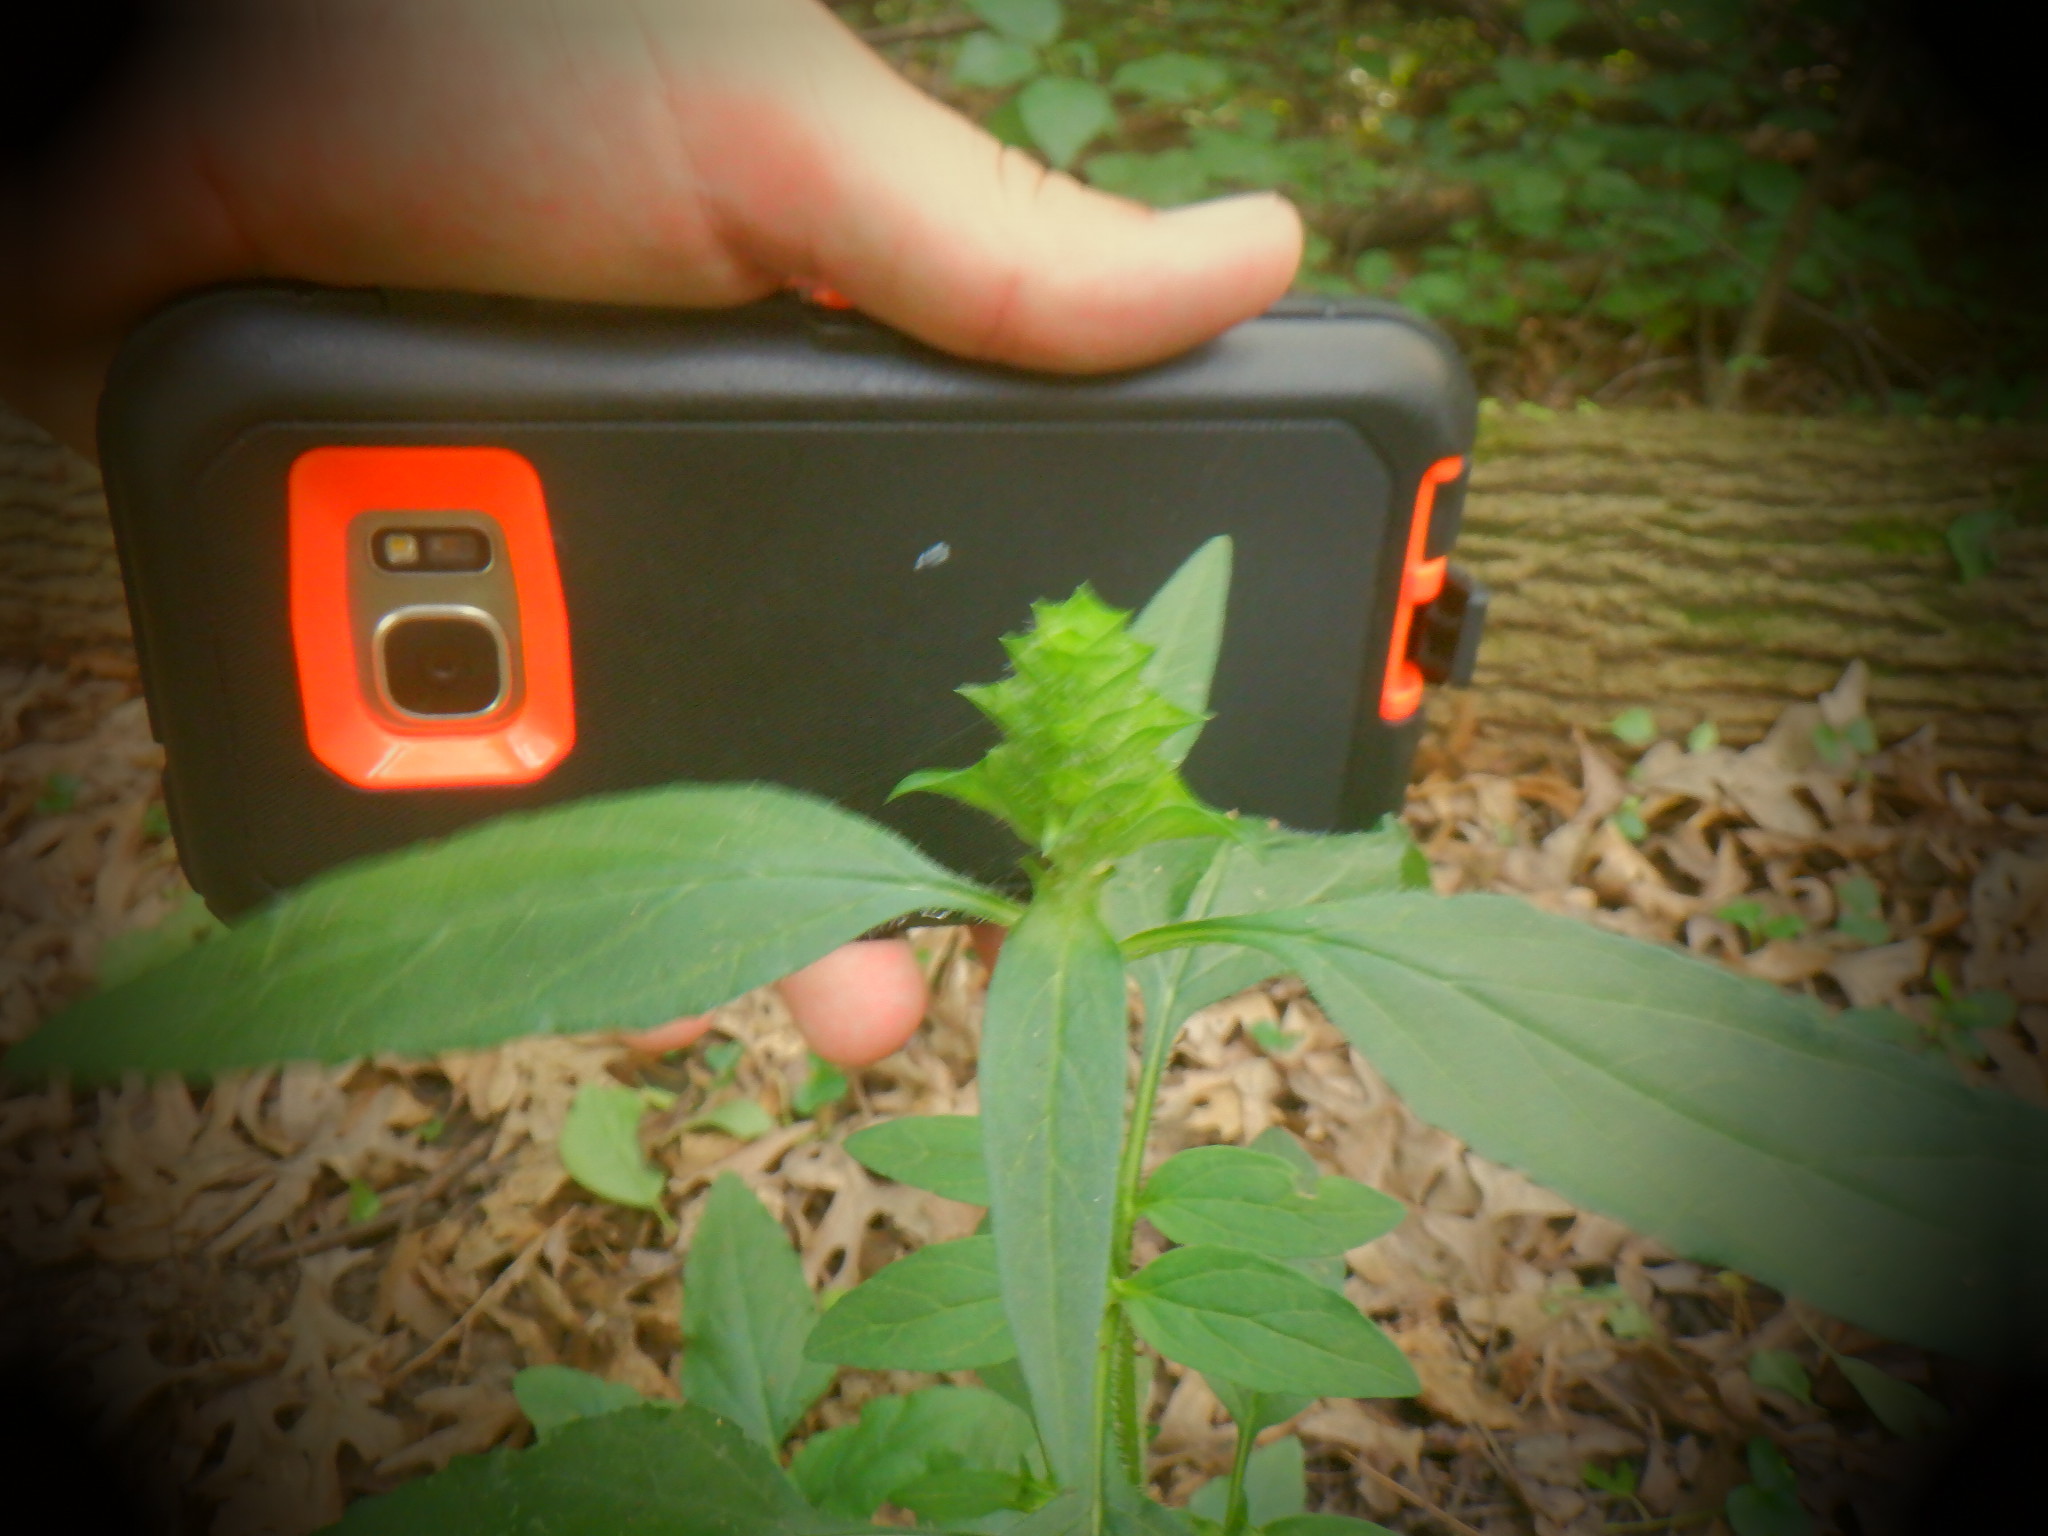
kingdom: Plantae
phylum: Tracheophyta
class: Magnoliopsida
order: Lamiales
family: Lamiaceae
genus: Prunella
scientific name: Prunella vulgaris
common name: Heal-all
